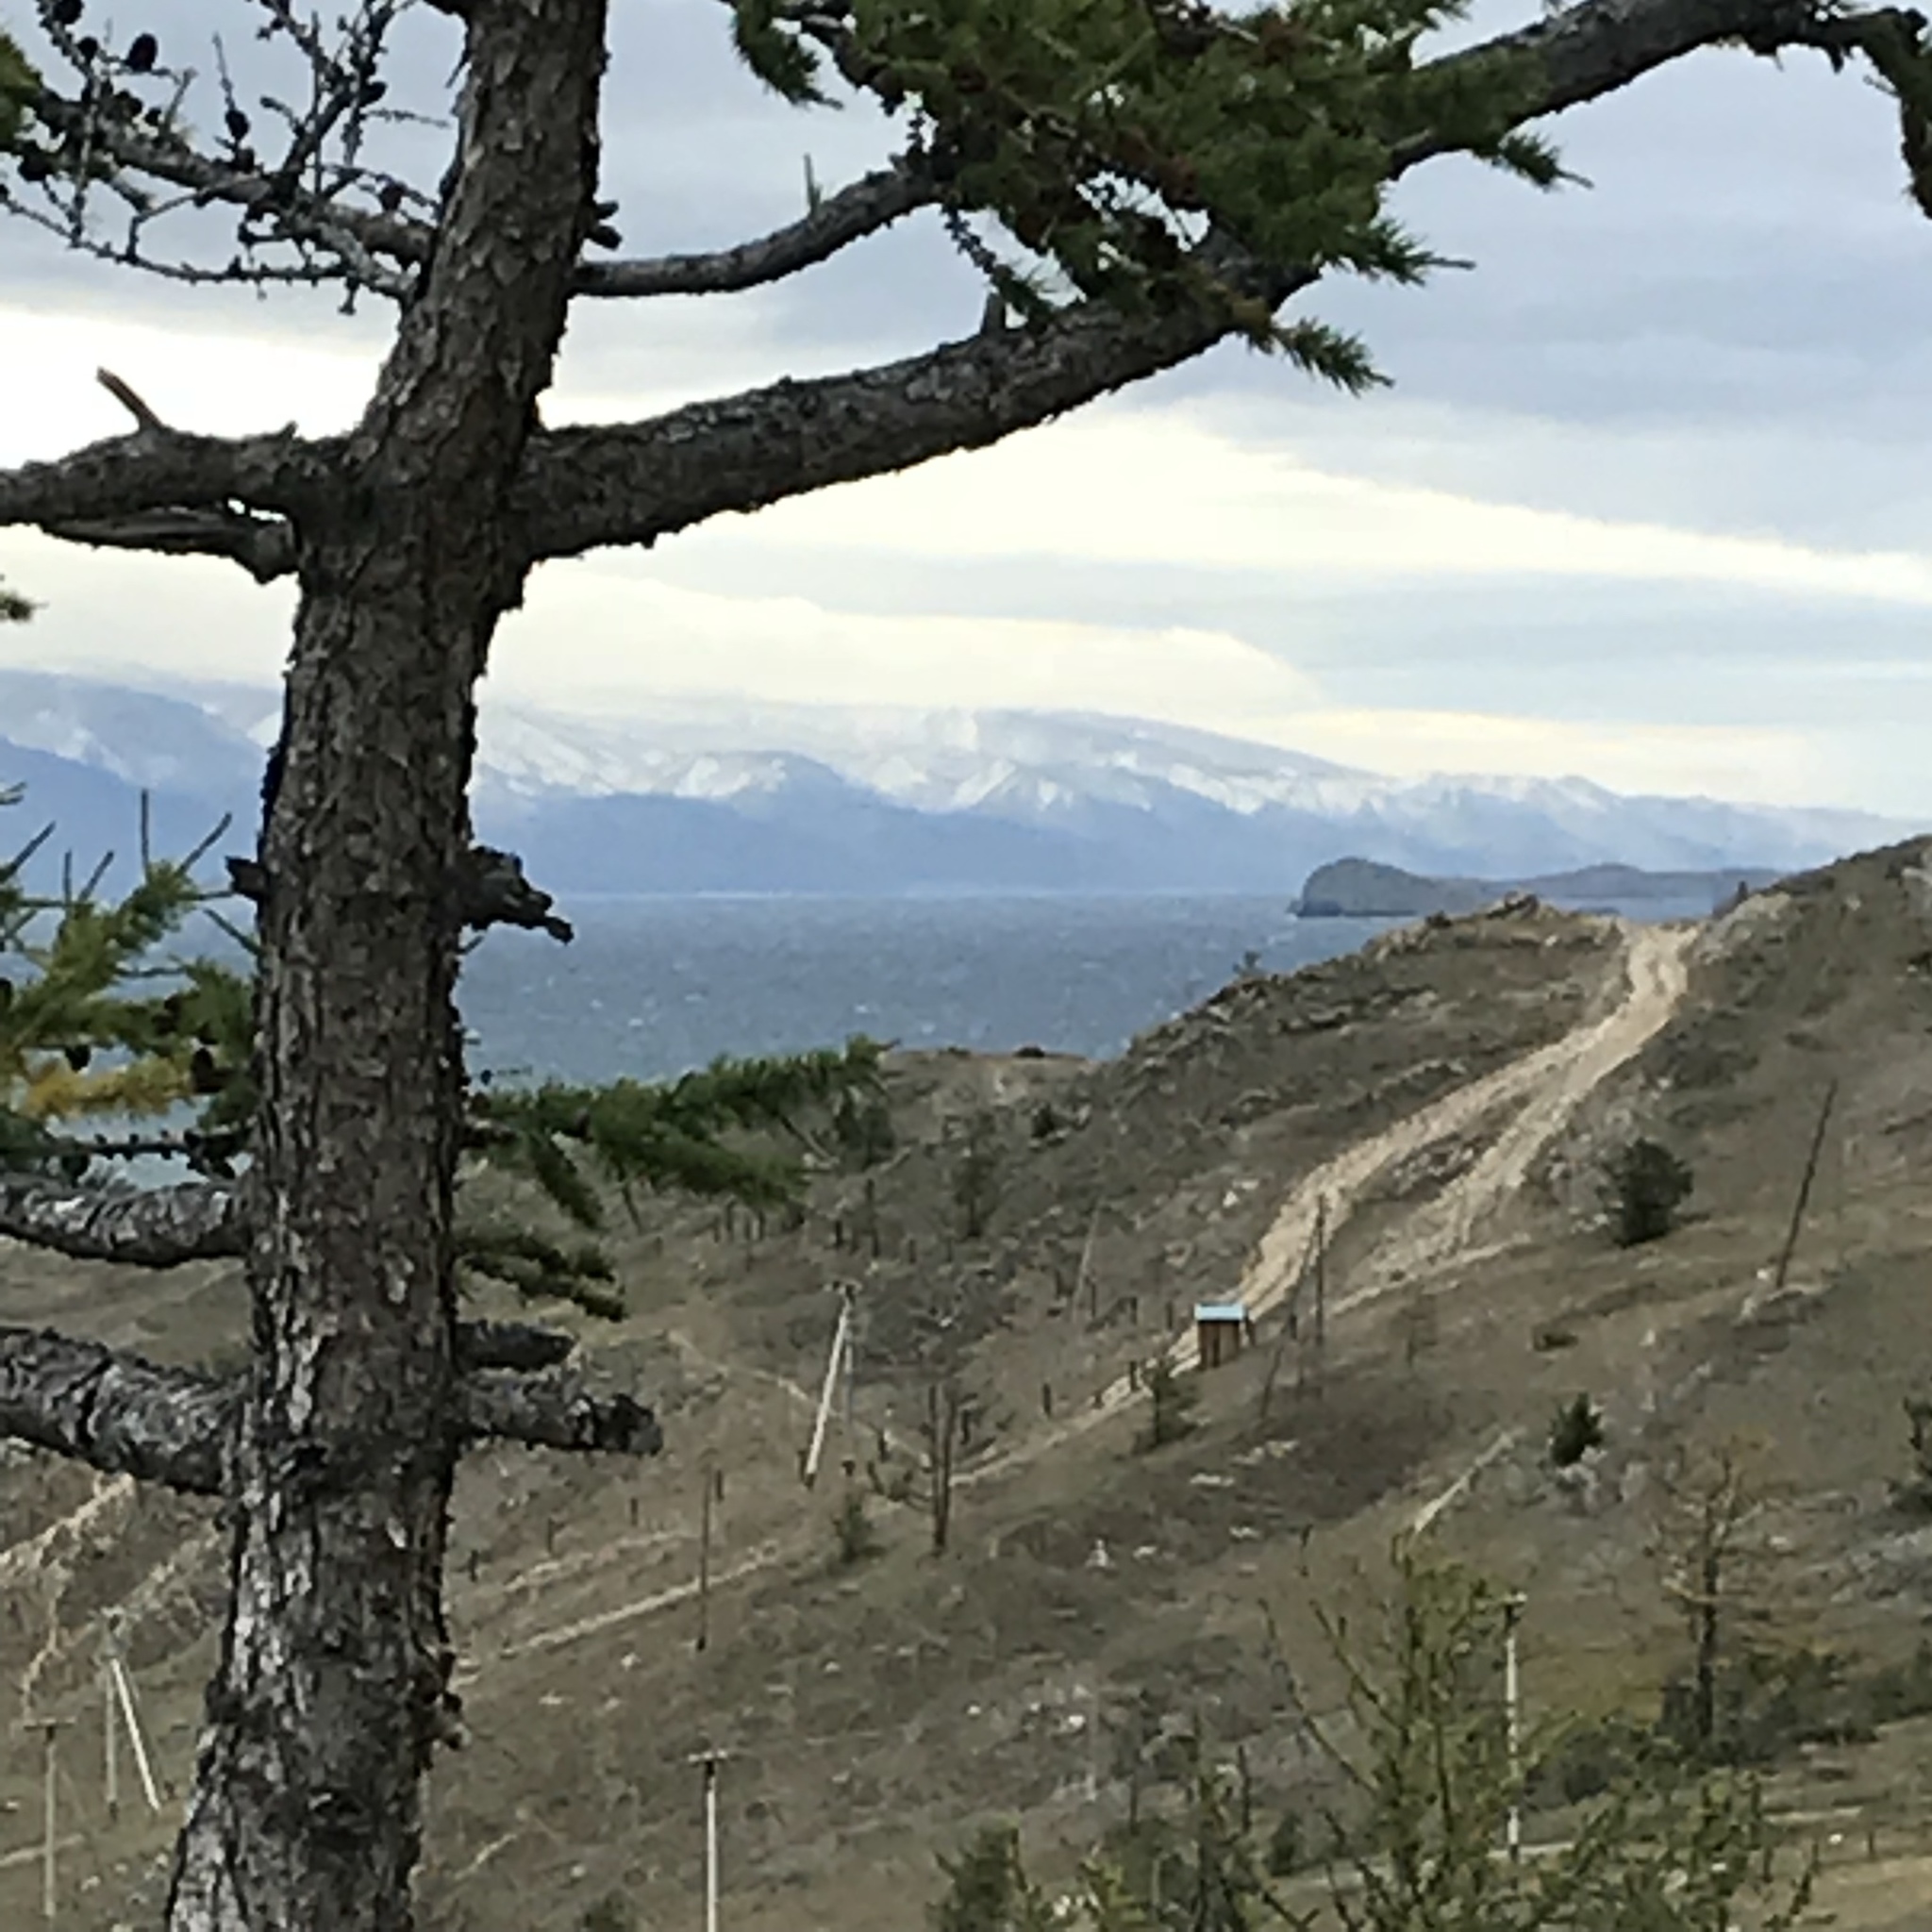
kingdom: Plantae
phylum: Tracheophyta
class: Pinopsida
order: Pinales
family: Pinaceae
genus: Larix
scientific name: Larix sibirica
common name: Siberian larch
